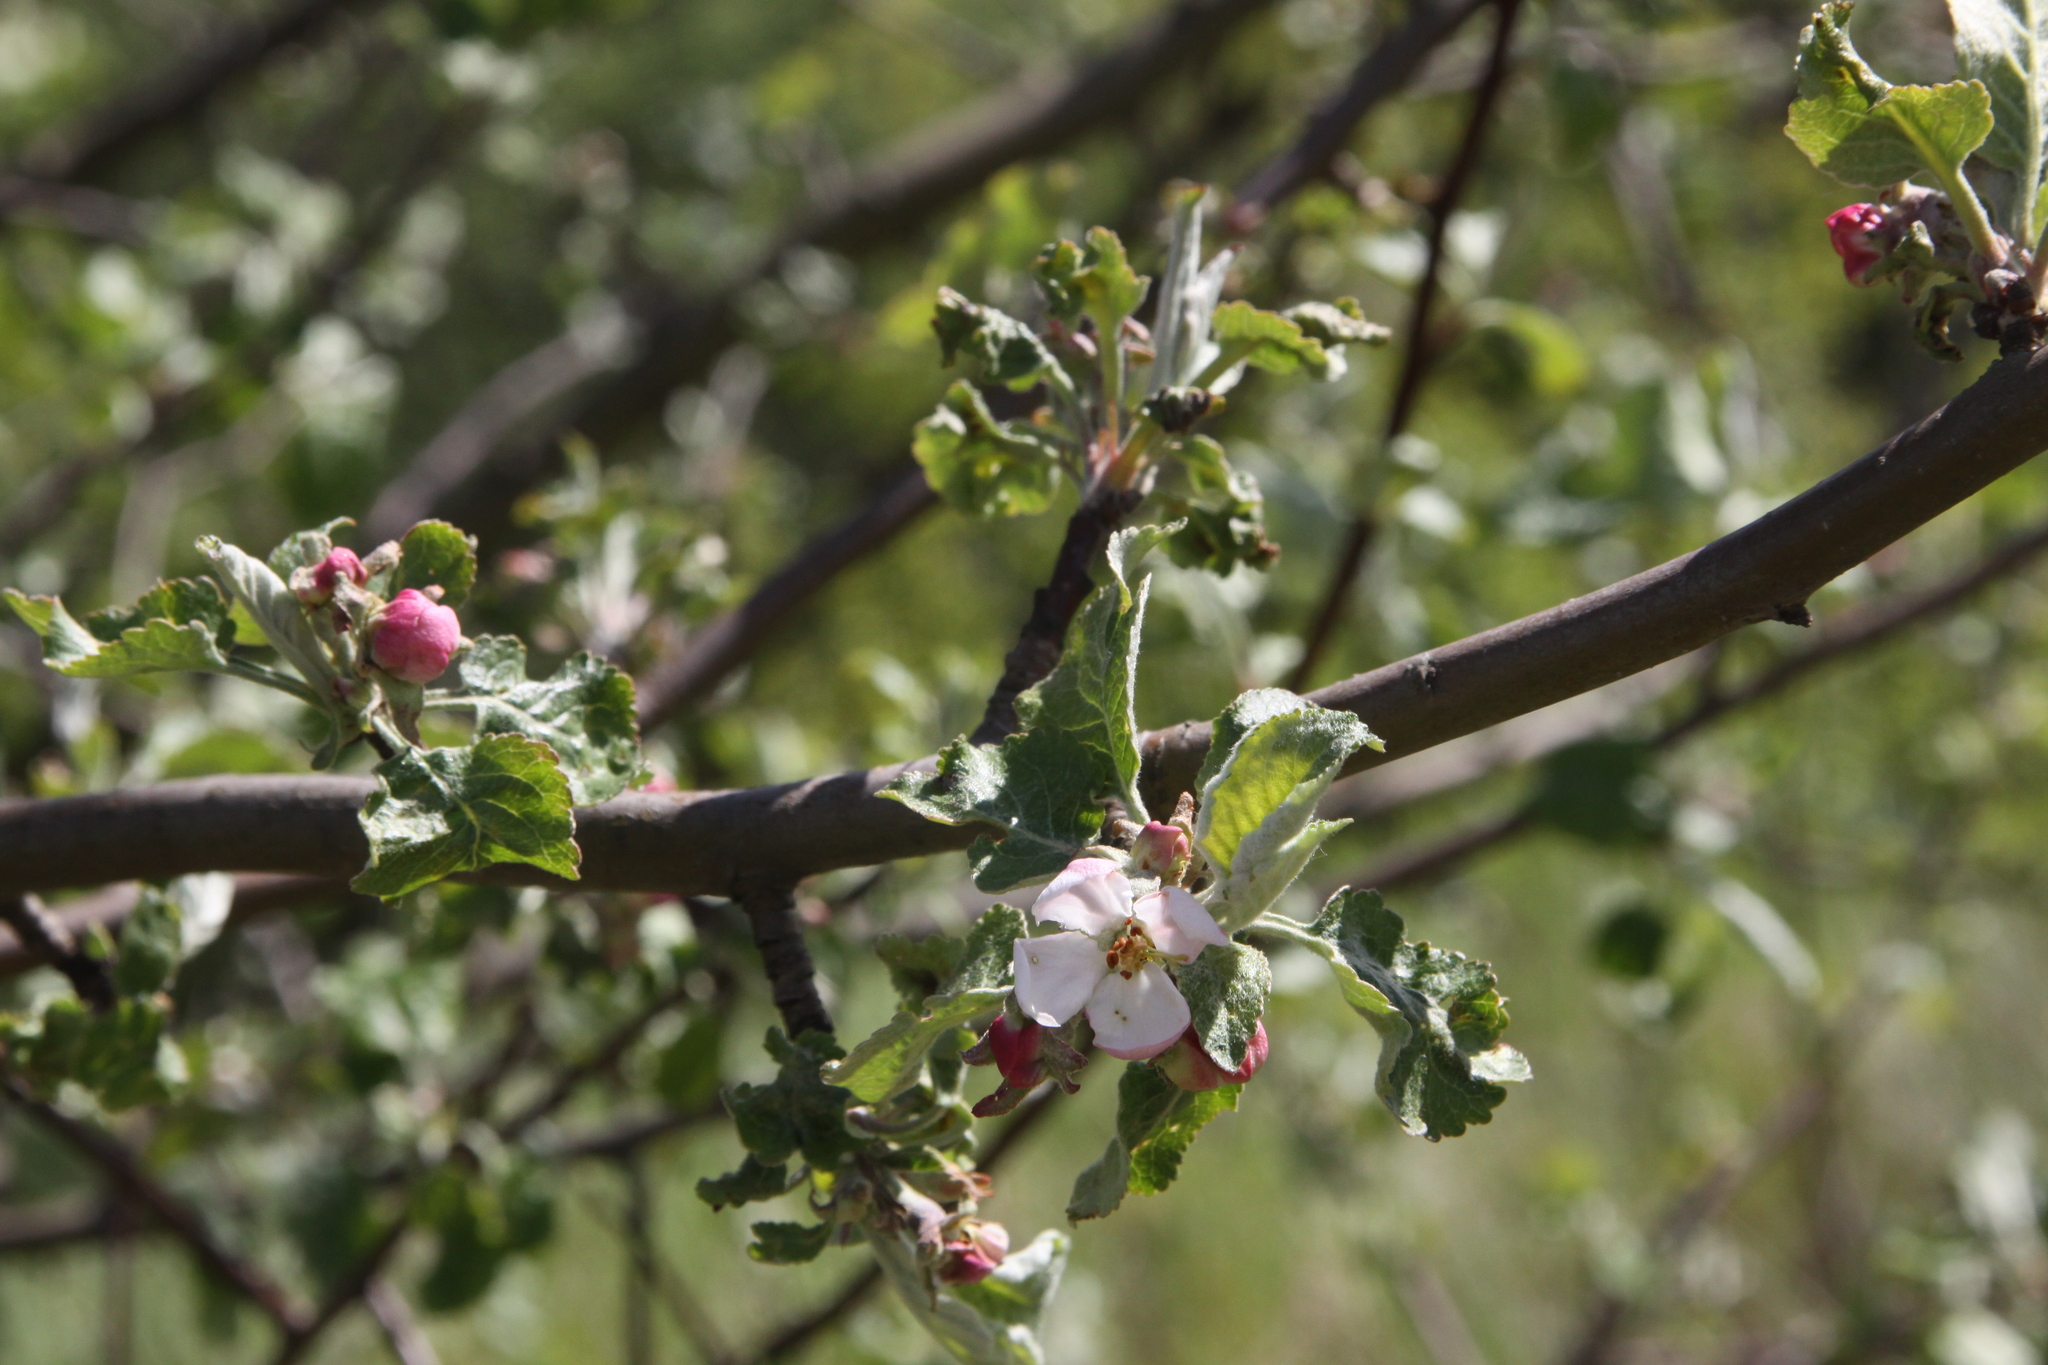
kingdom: Plantae
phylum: Tracheophyta
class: Magnoliopsida
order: Rosales
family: Rosaceae
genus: Malus
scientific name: Malus domestica
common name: Apple
